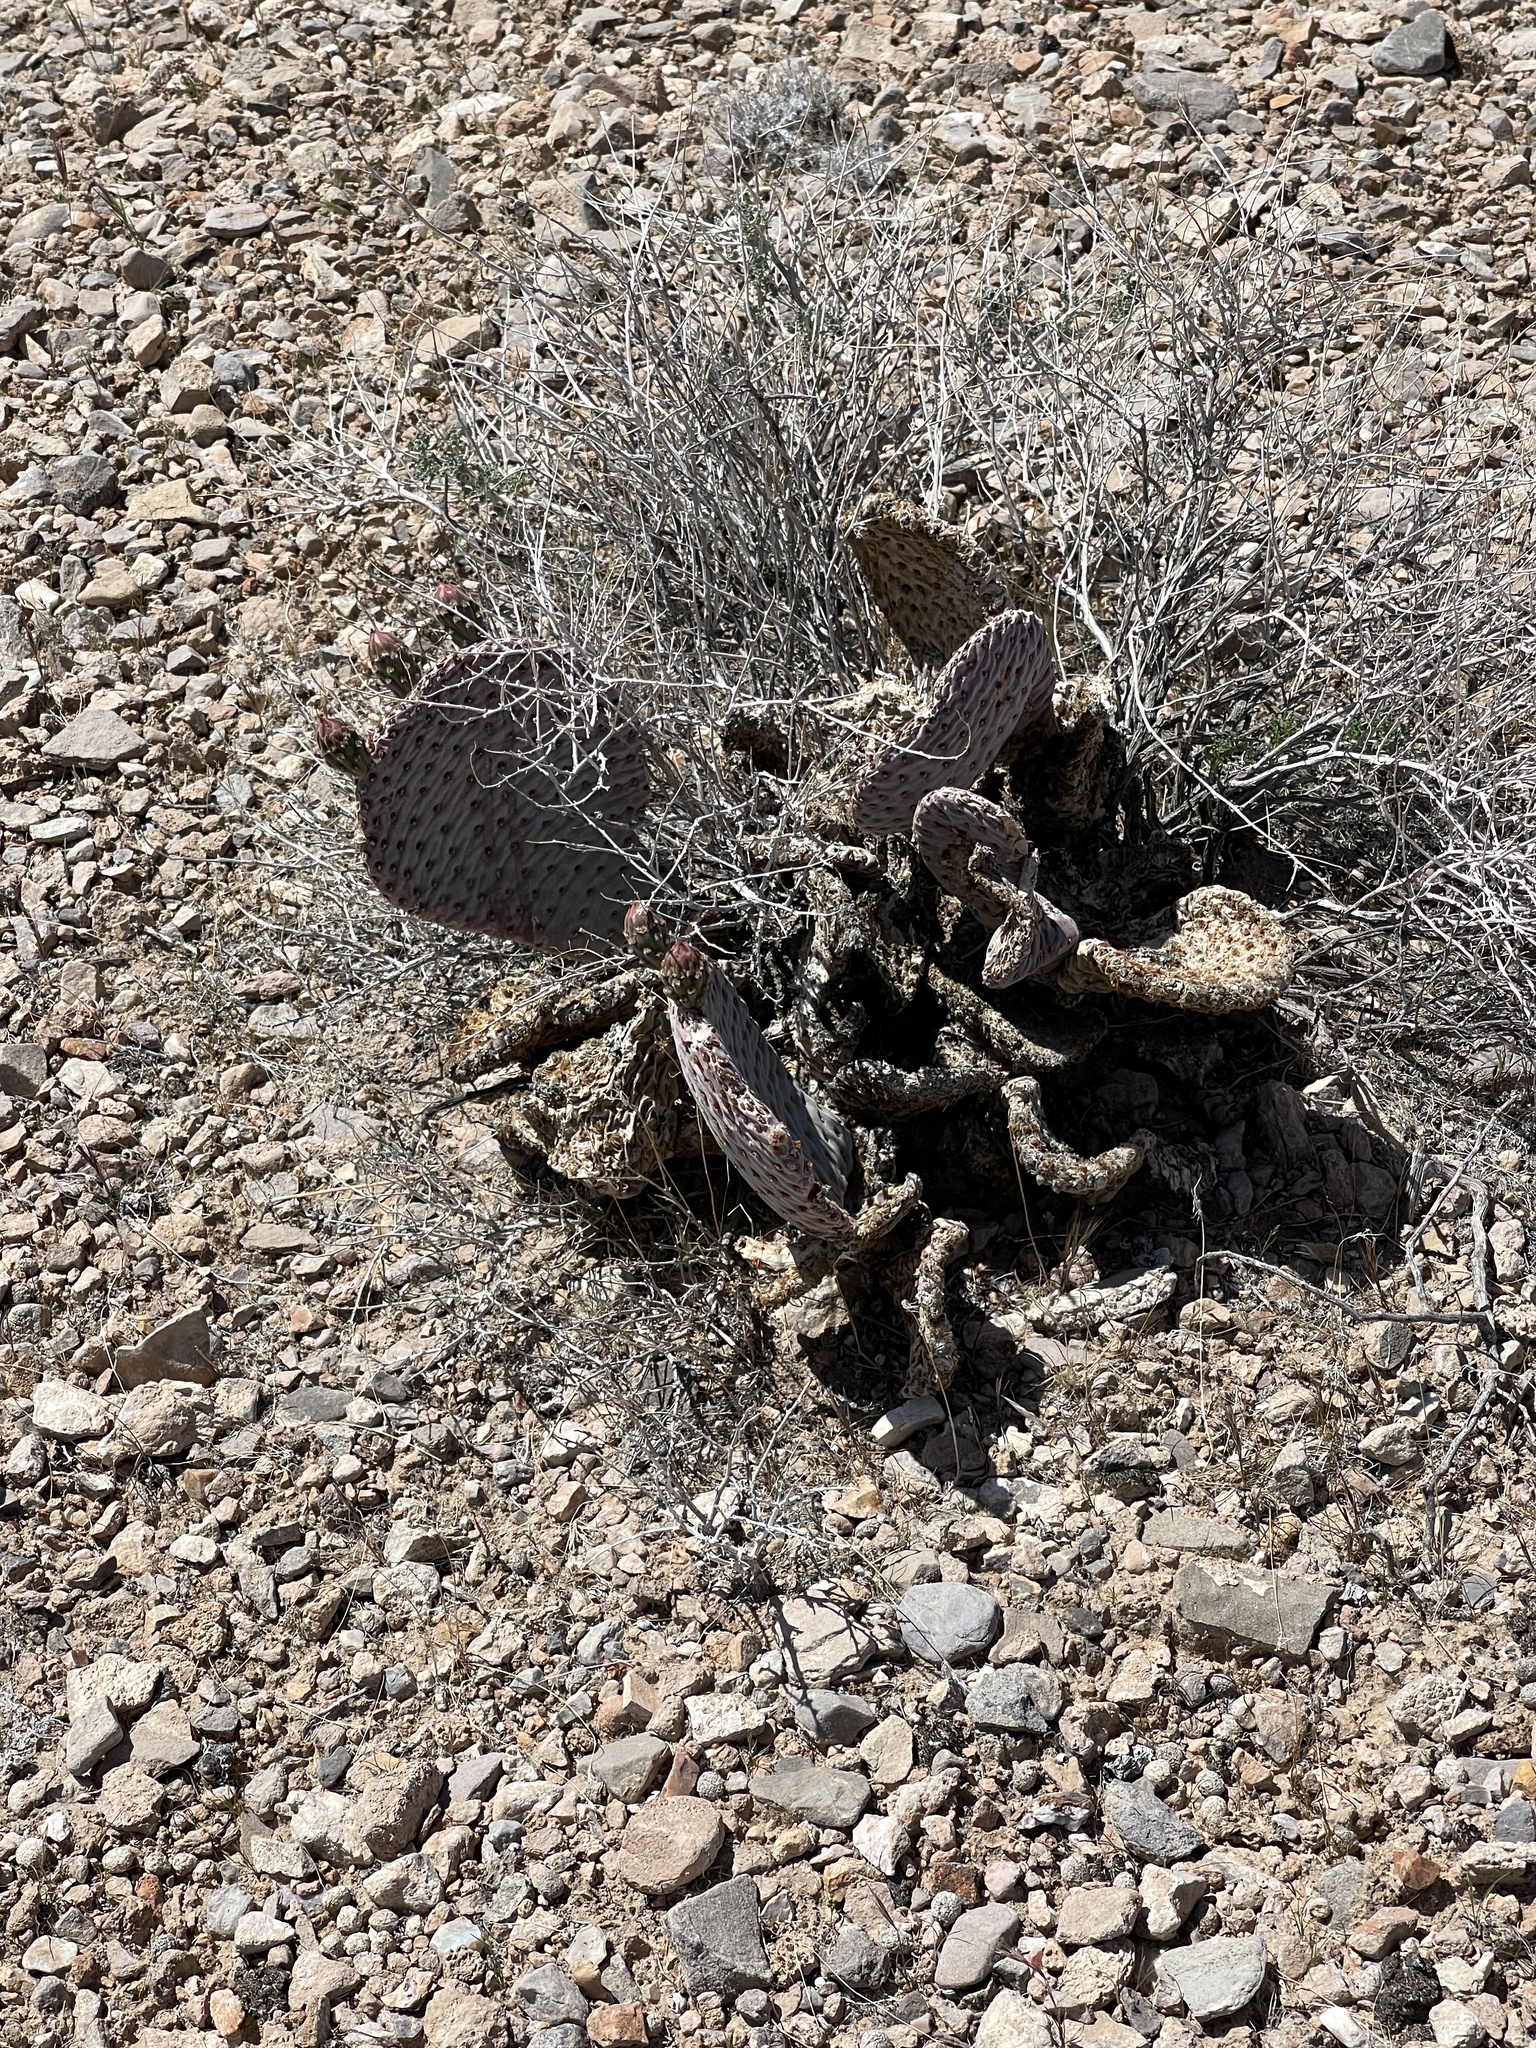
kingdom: Plantae
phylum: Tracheophyta
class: Magnoliopsida
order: Caryophyllales
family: Cactaceae
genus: Opuntia
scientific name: Opuntia basilaris
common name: Beavertail prickly-pear
